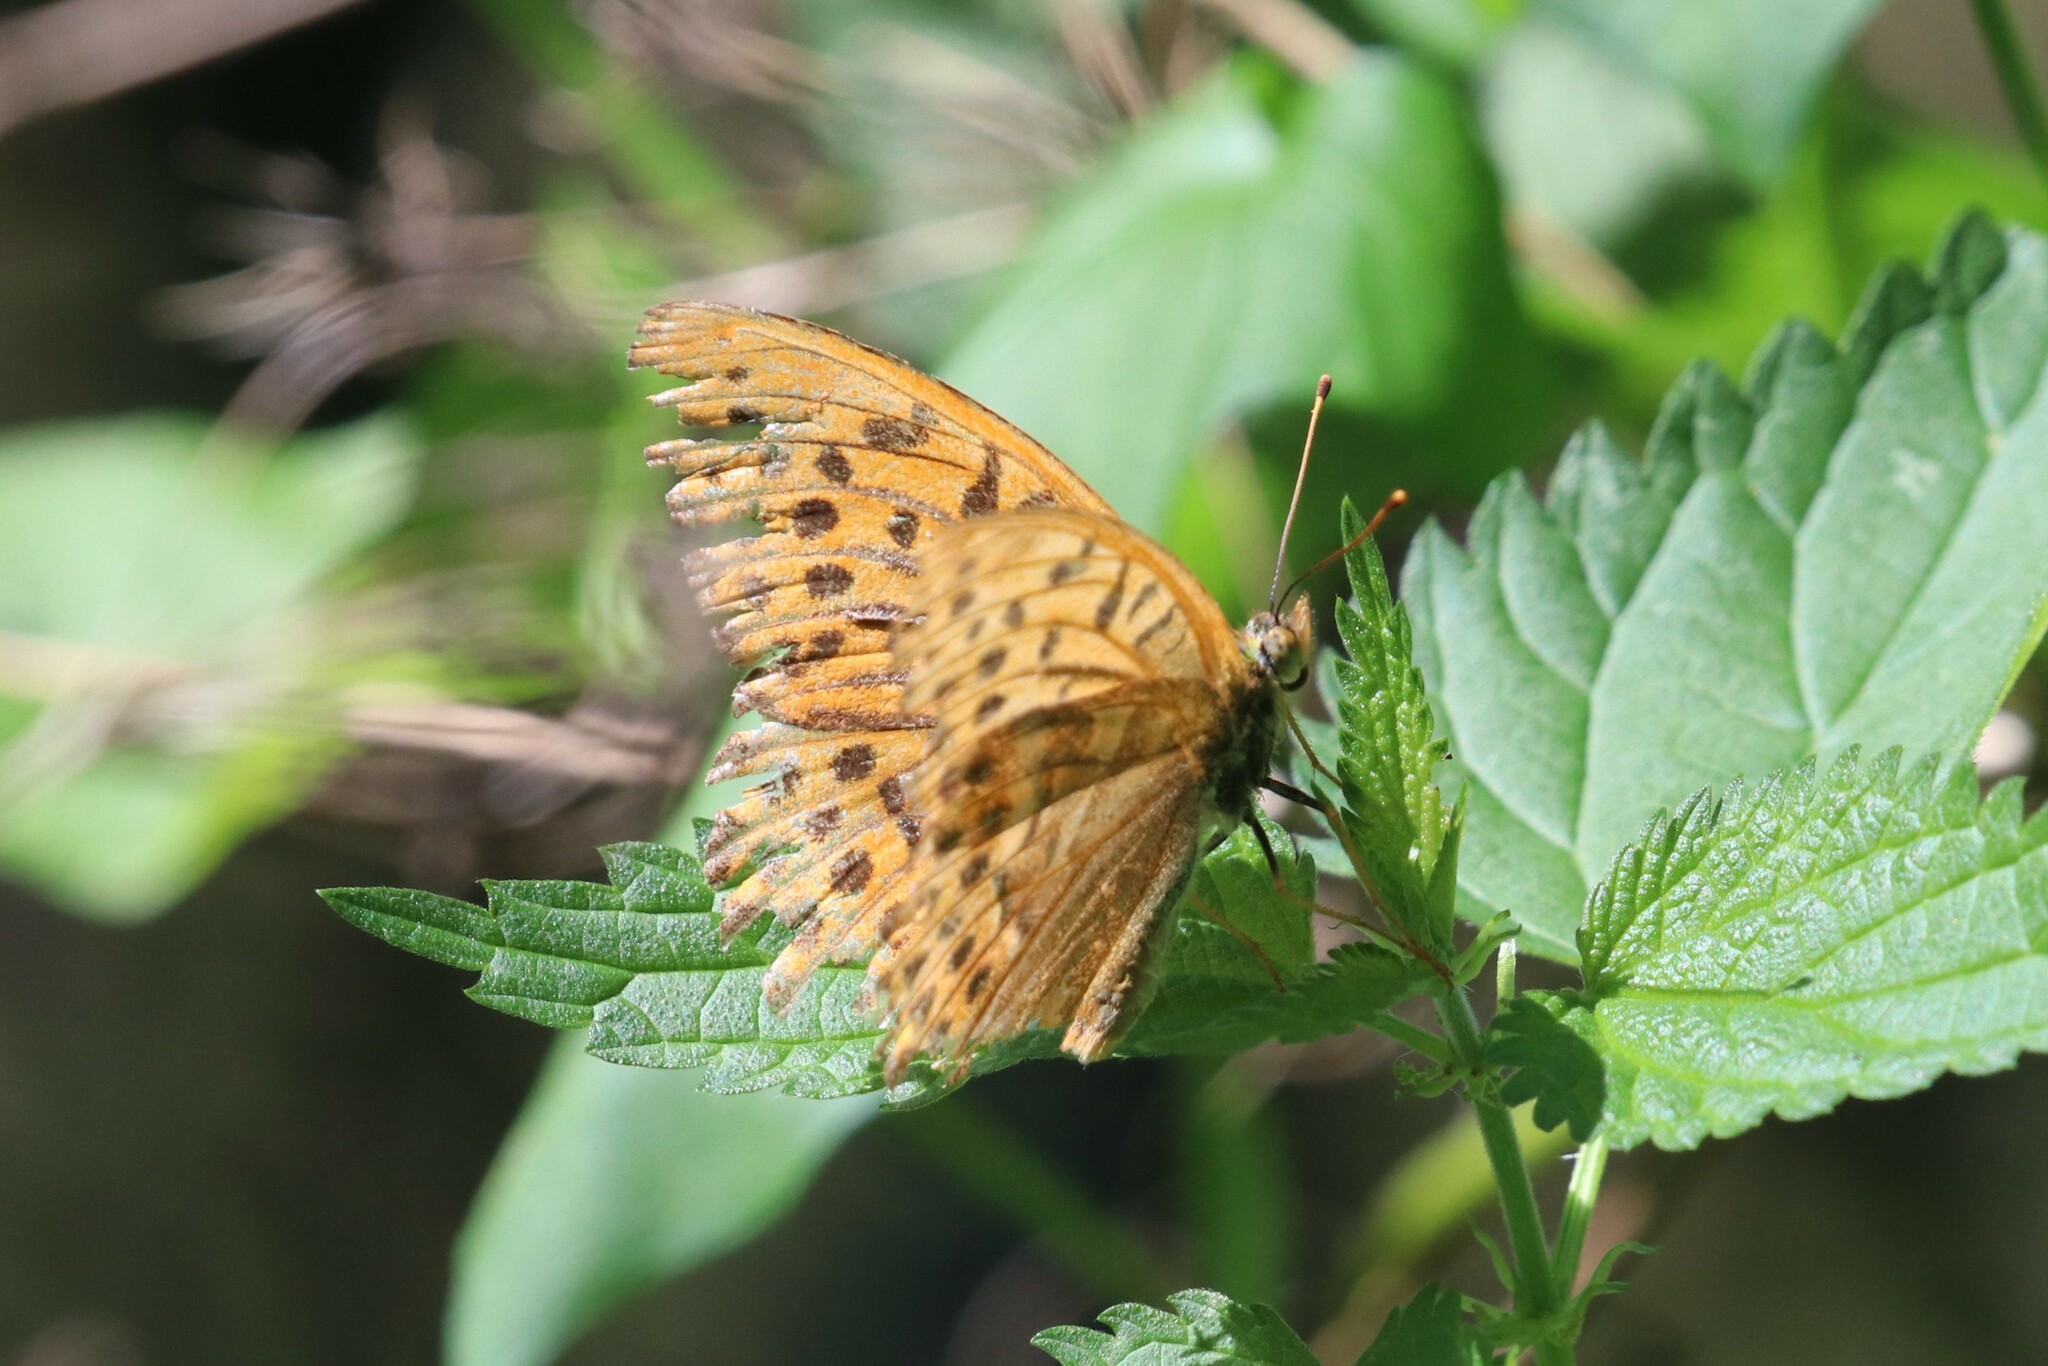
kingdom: Animalia
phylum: Arthropoda
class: Insecta
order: Lepidoptera
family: Nymphalidae
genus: Argynnis
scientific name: Argynnis paphia
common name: Silver-washed fritillary
